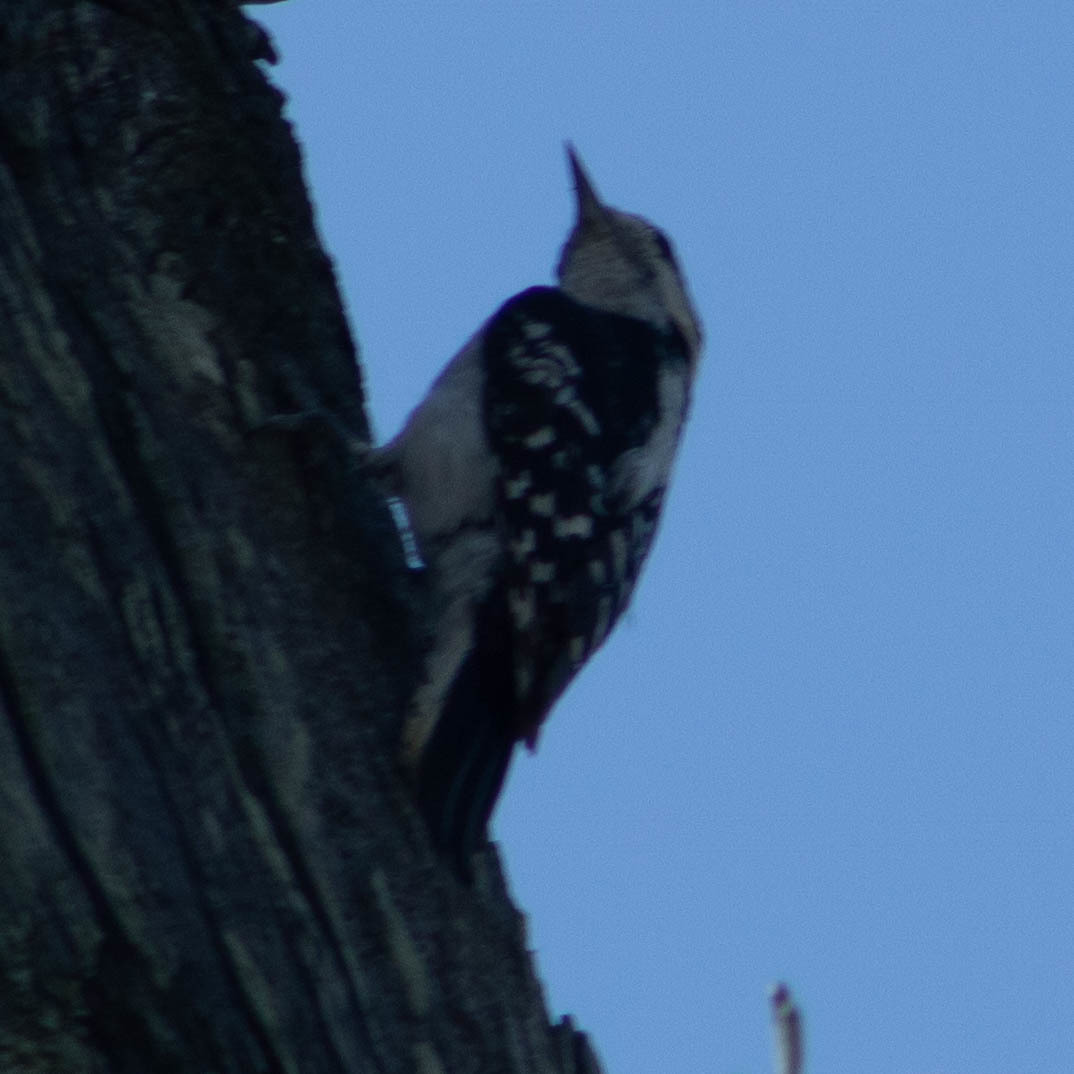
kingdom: Animalia
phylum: Chordata
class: Aves
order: Piciformes
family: Picidae
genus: Dryobates
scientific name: Dryobates pubescens
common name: Downy woodpecker
